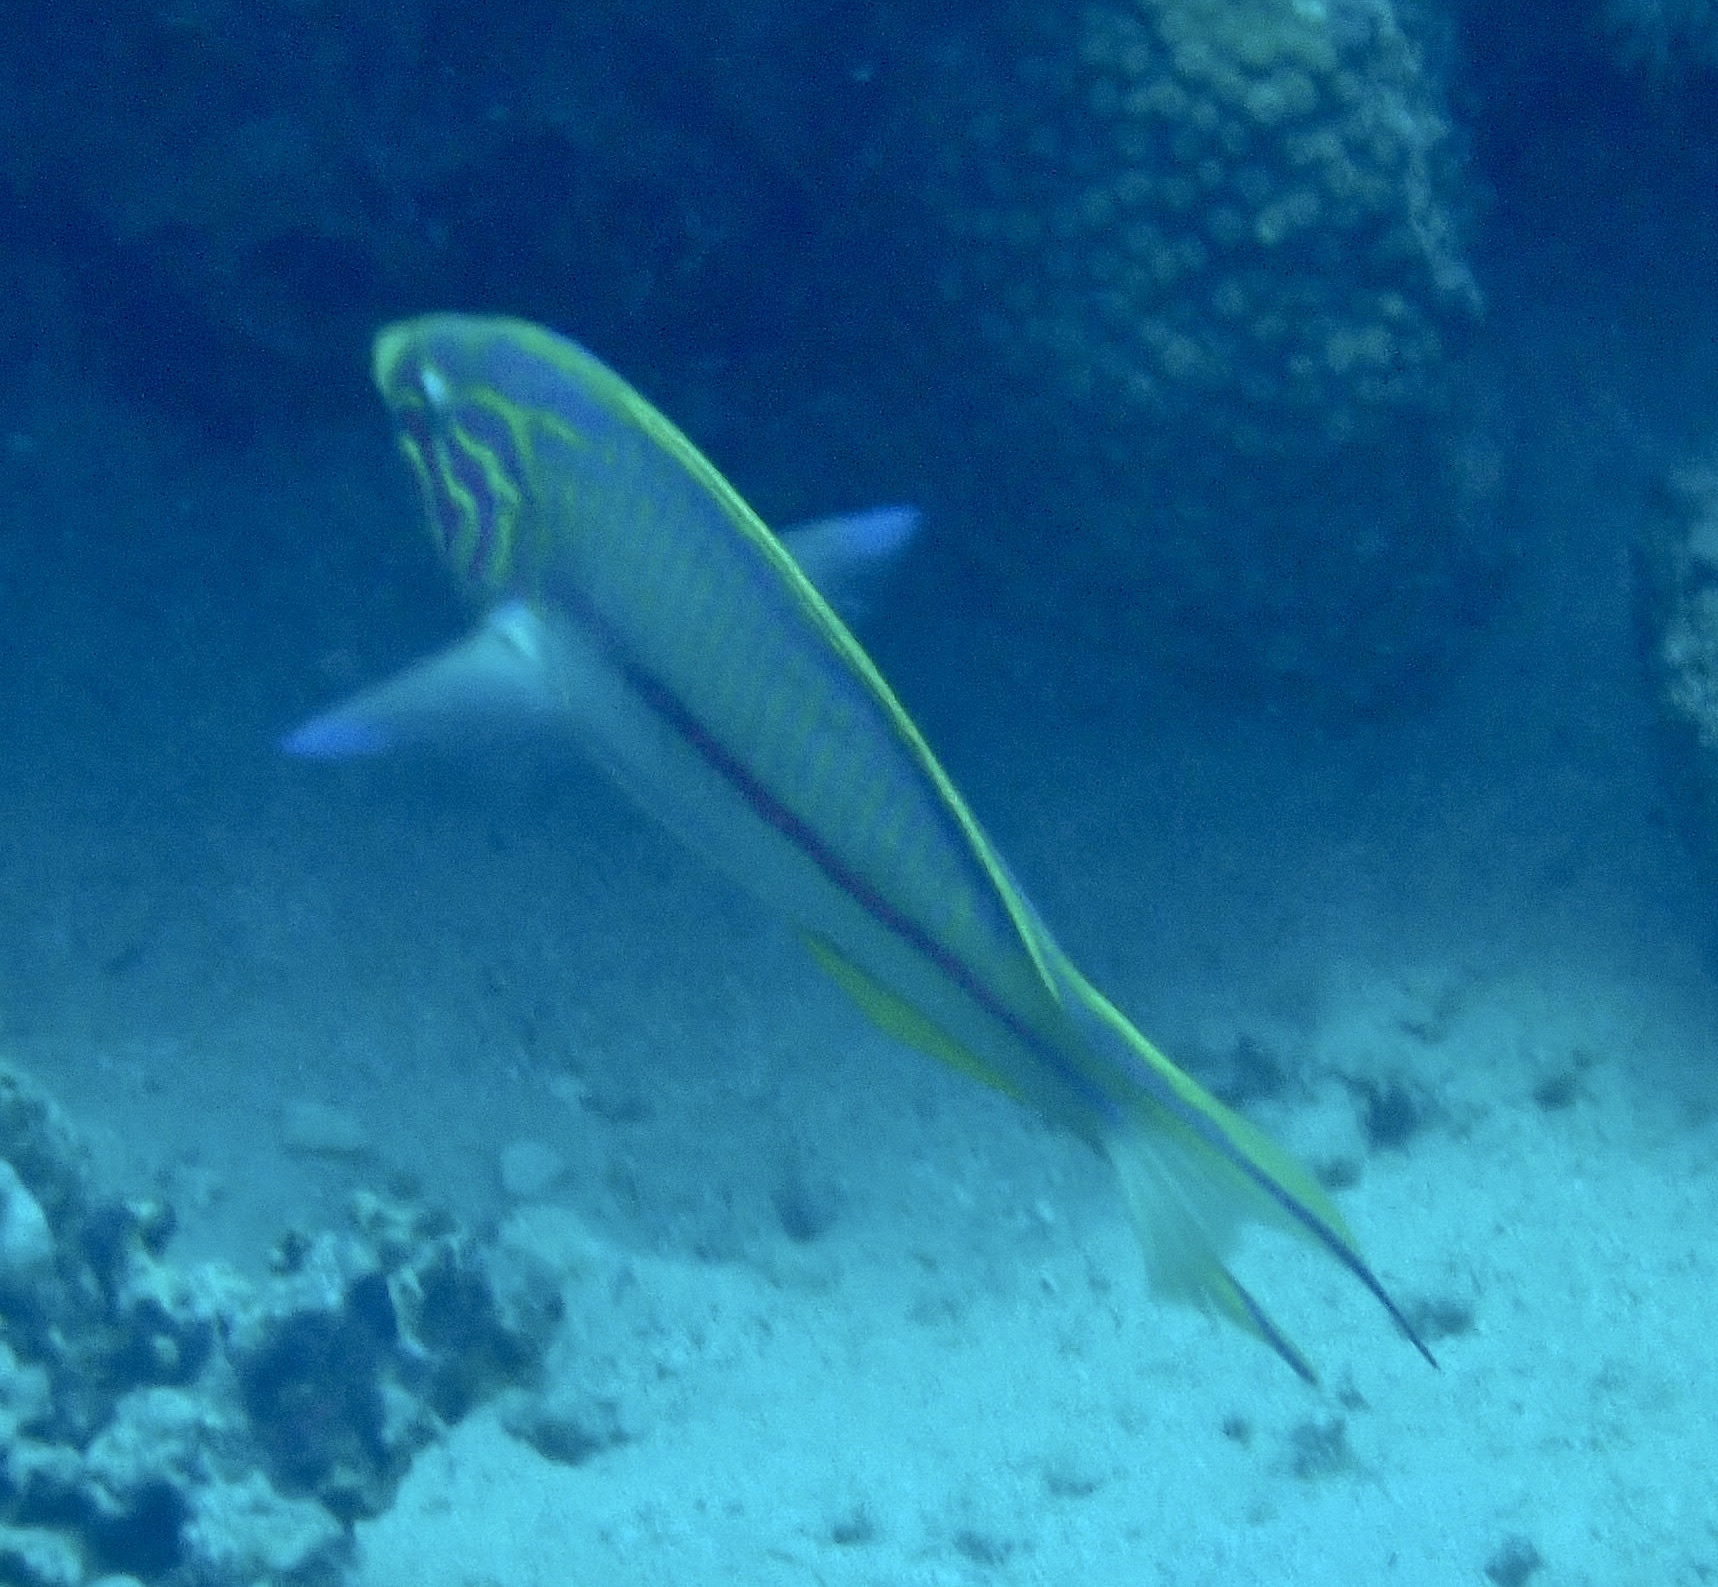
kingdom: Animalia
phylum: Chordata
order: Perciformes
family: Labridae
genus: Thalassoma
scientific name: Thalassoma rueppellii
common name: Klunzinger's wrasse
